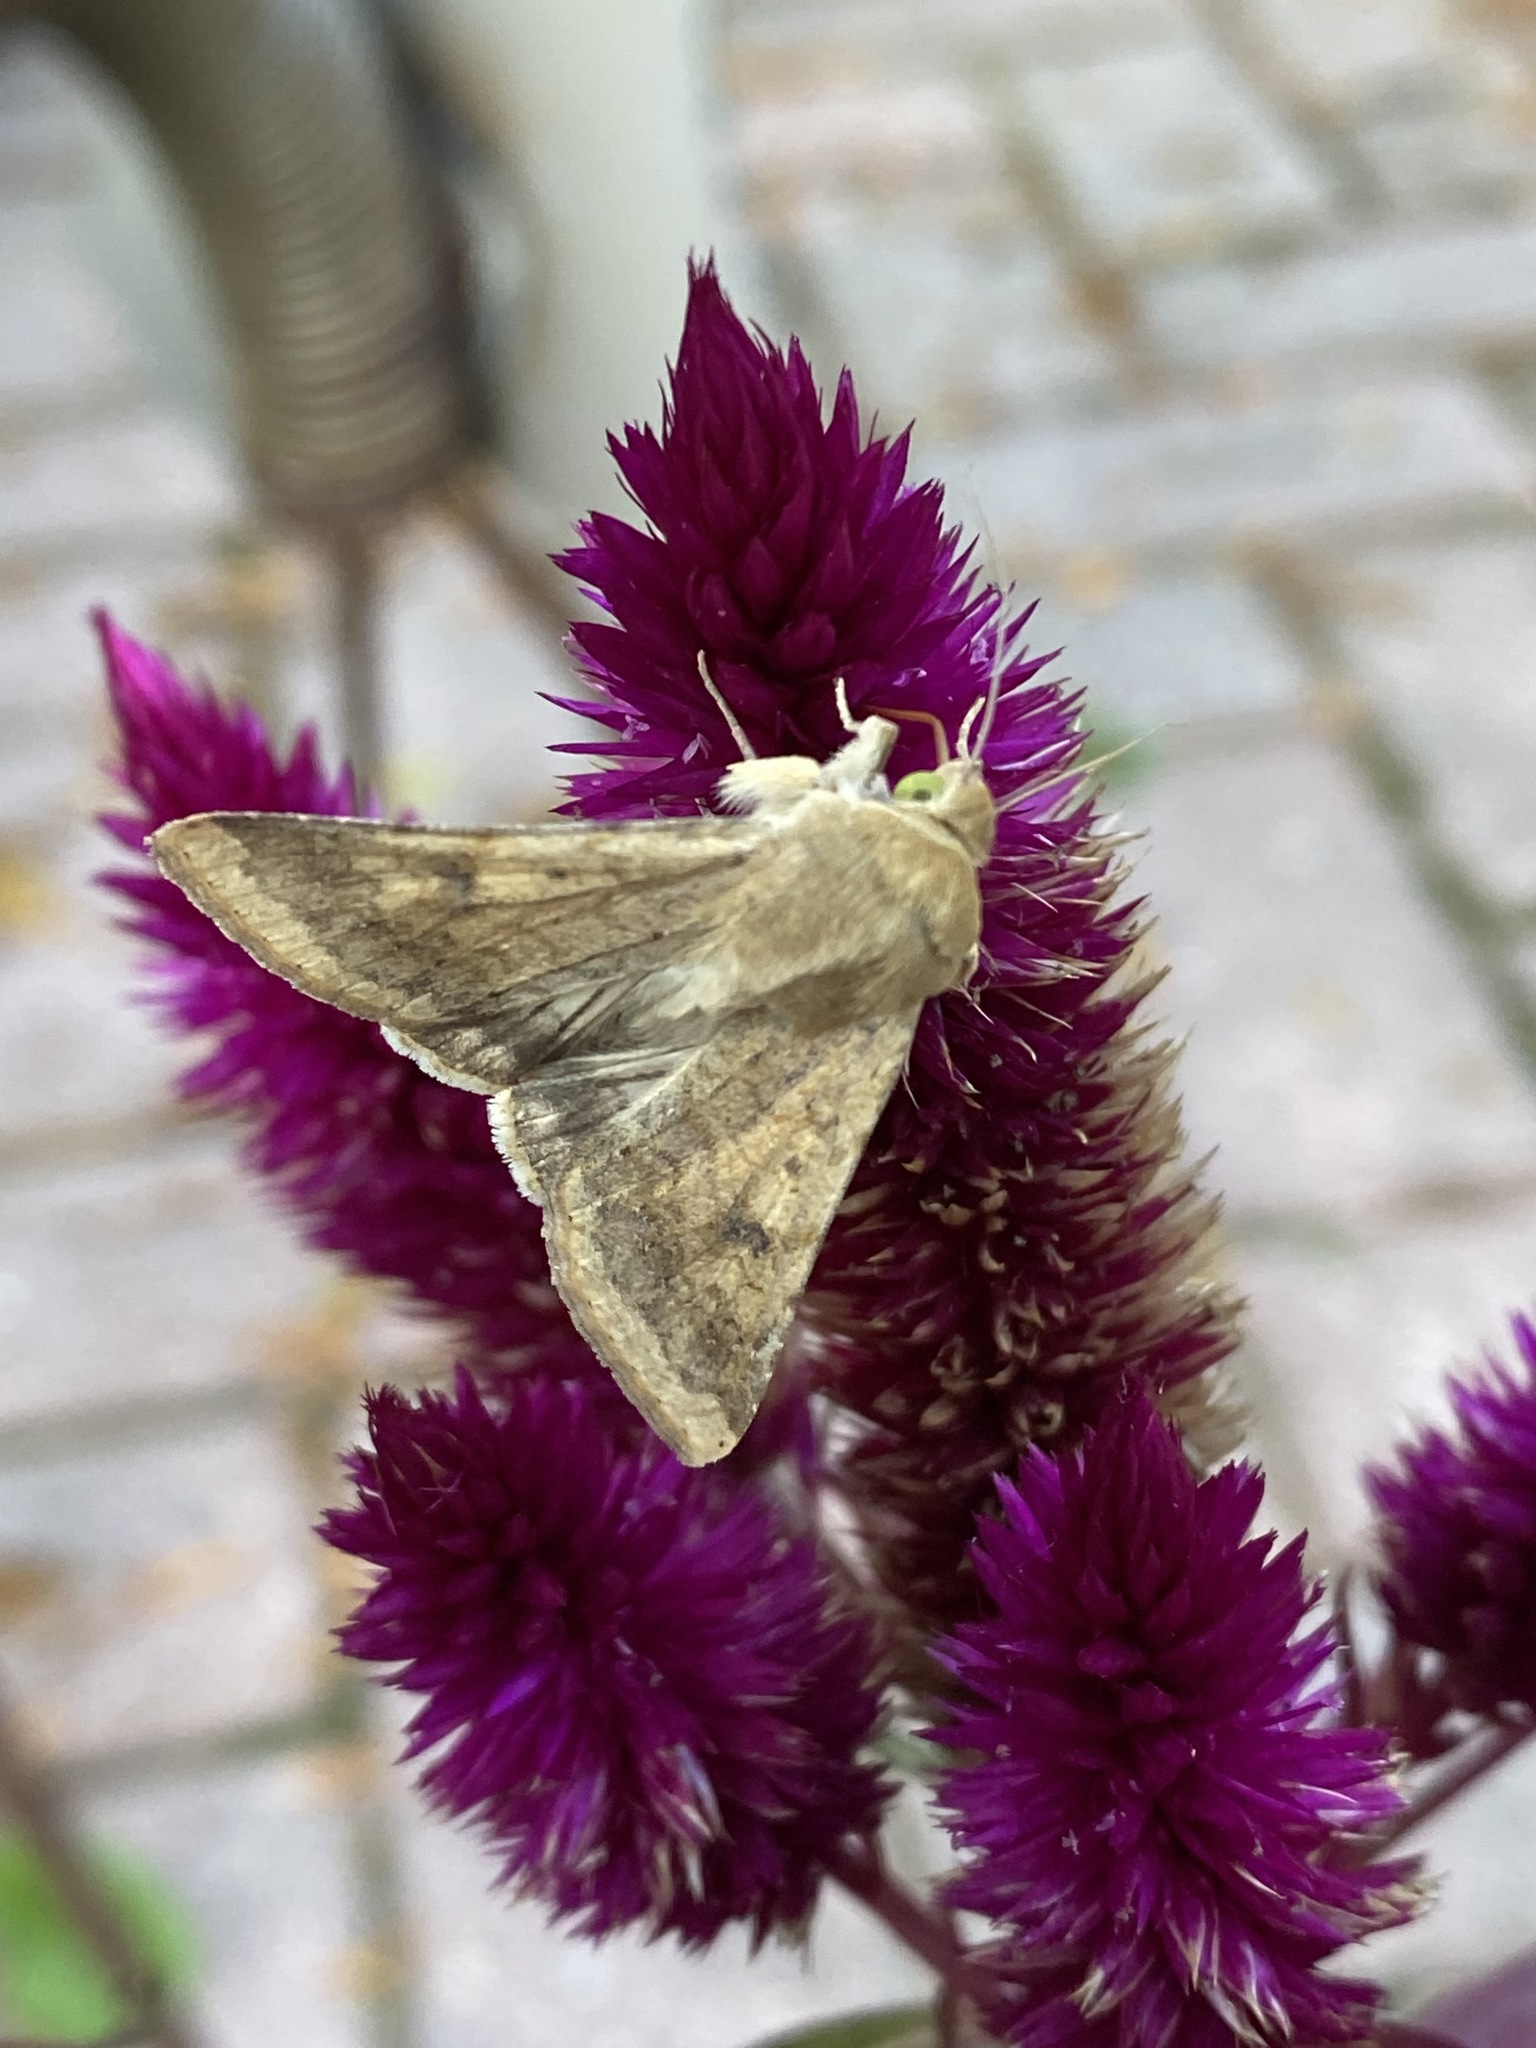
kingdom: Animalia
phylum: Arthropoda
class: Insecta
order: Lepidoptera
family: Noctuidae
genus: Helicoverpa
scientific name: Helicoverpa zea
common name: Bollworm
